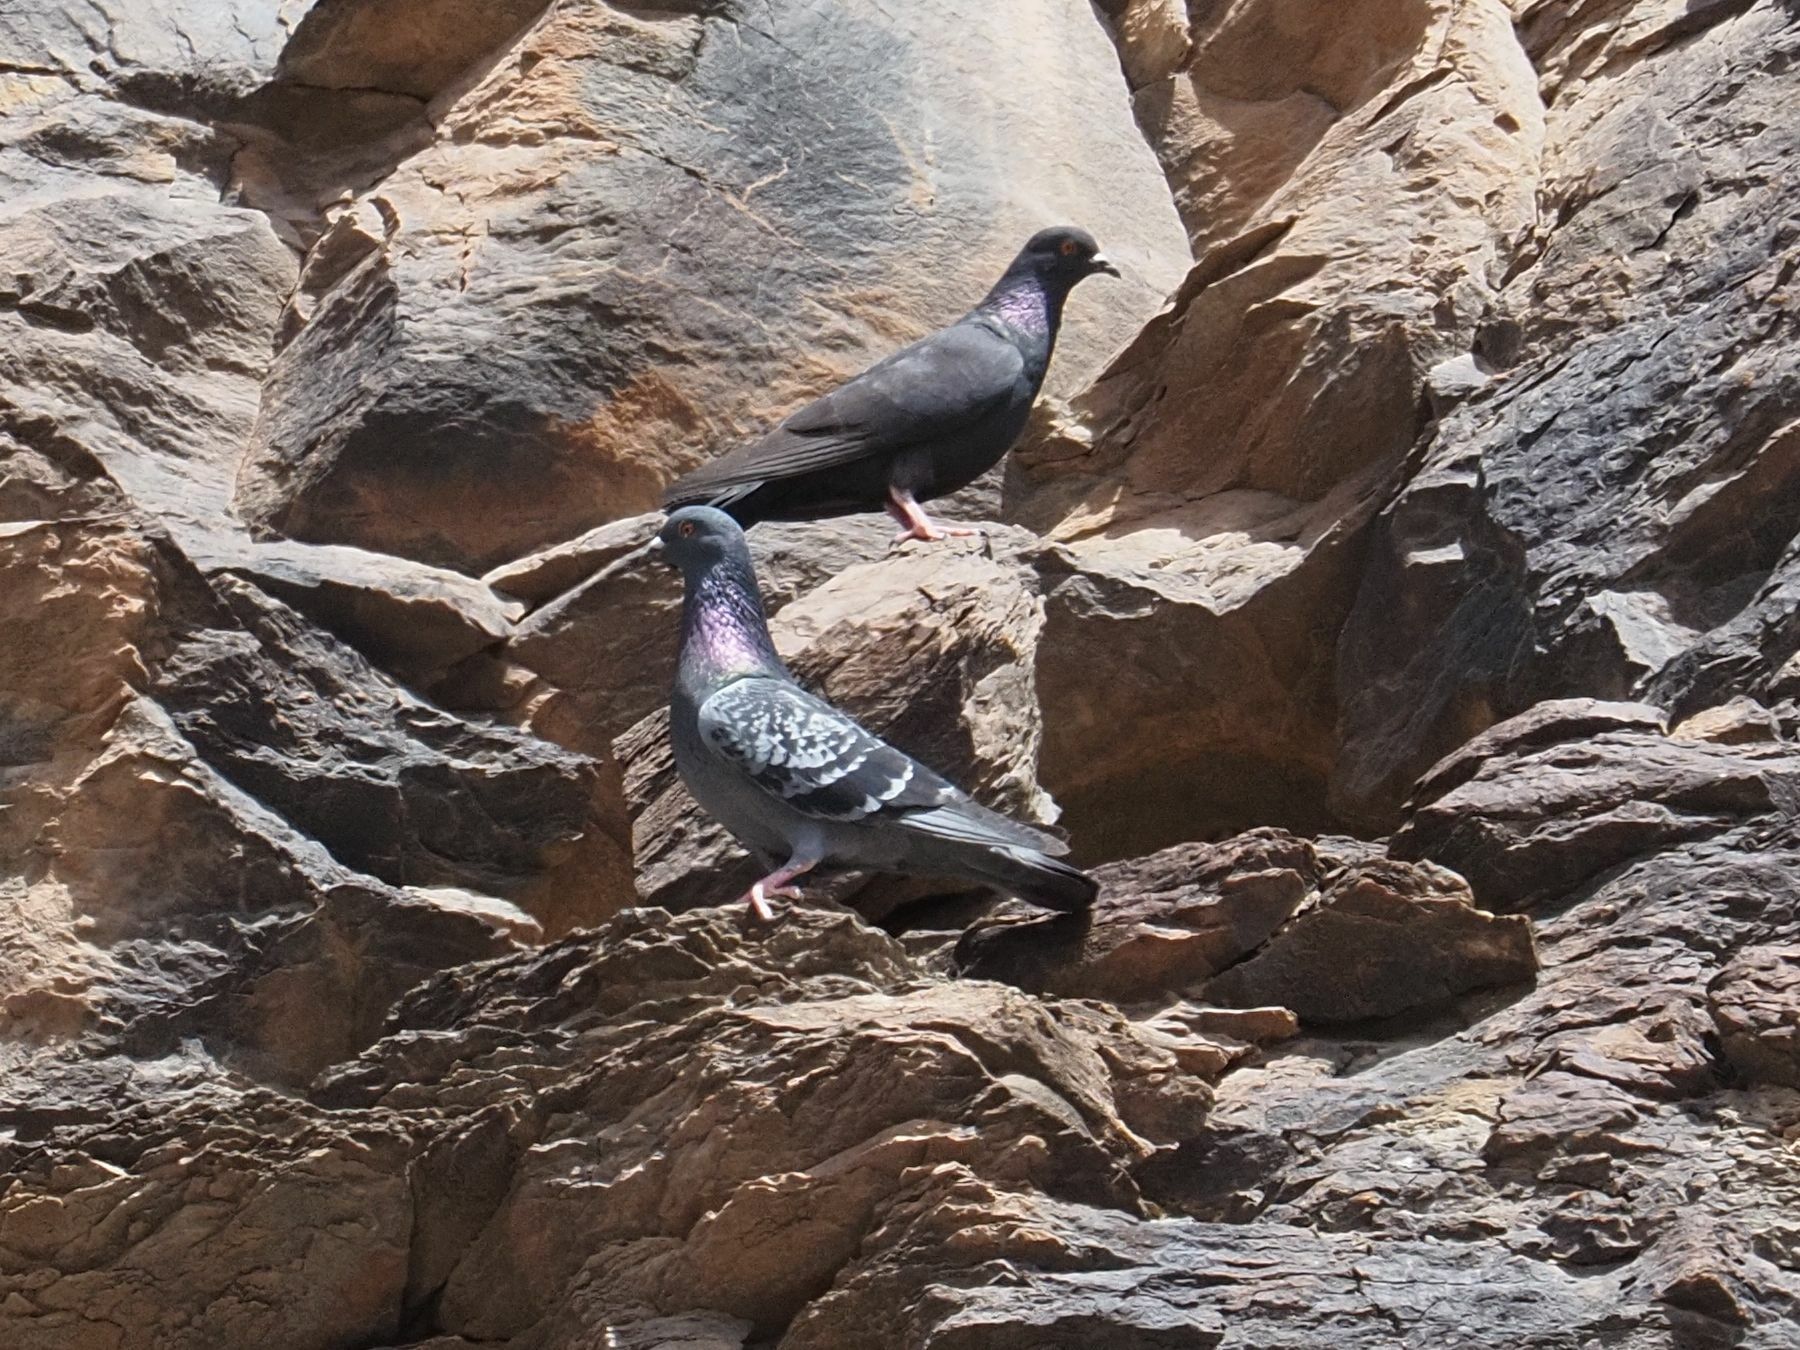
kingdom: Animalia
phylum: Chordata
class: Aves
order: Columbiformes
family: Columbidae
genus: Columba
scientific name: Columba livia
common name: Rock pigeon
